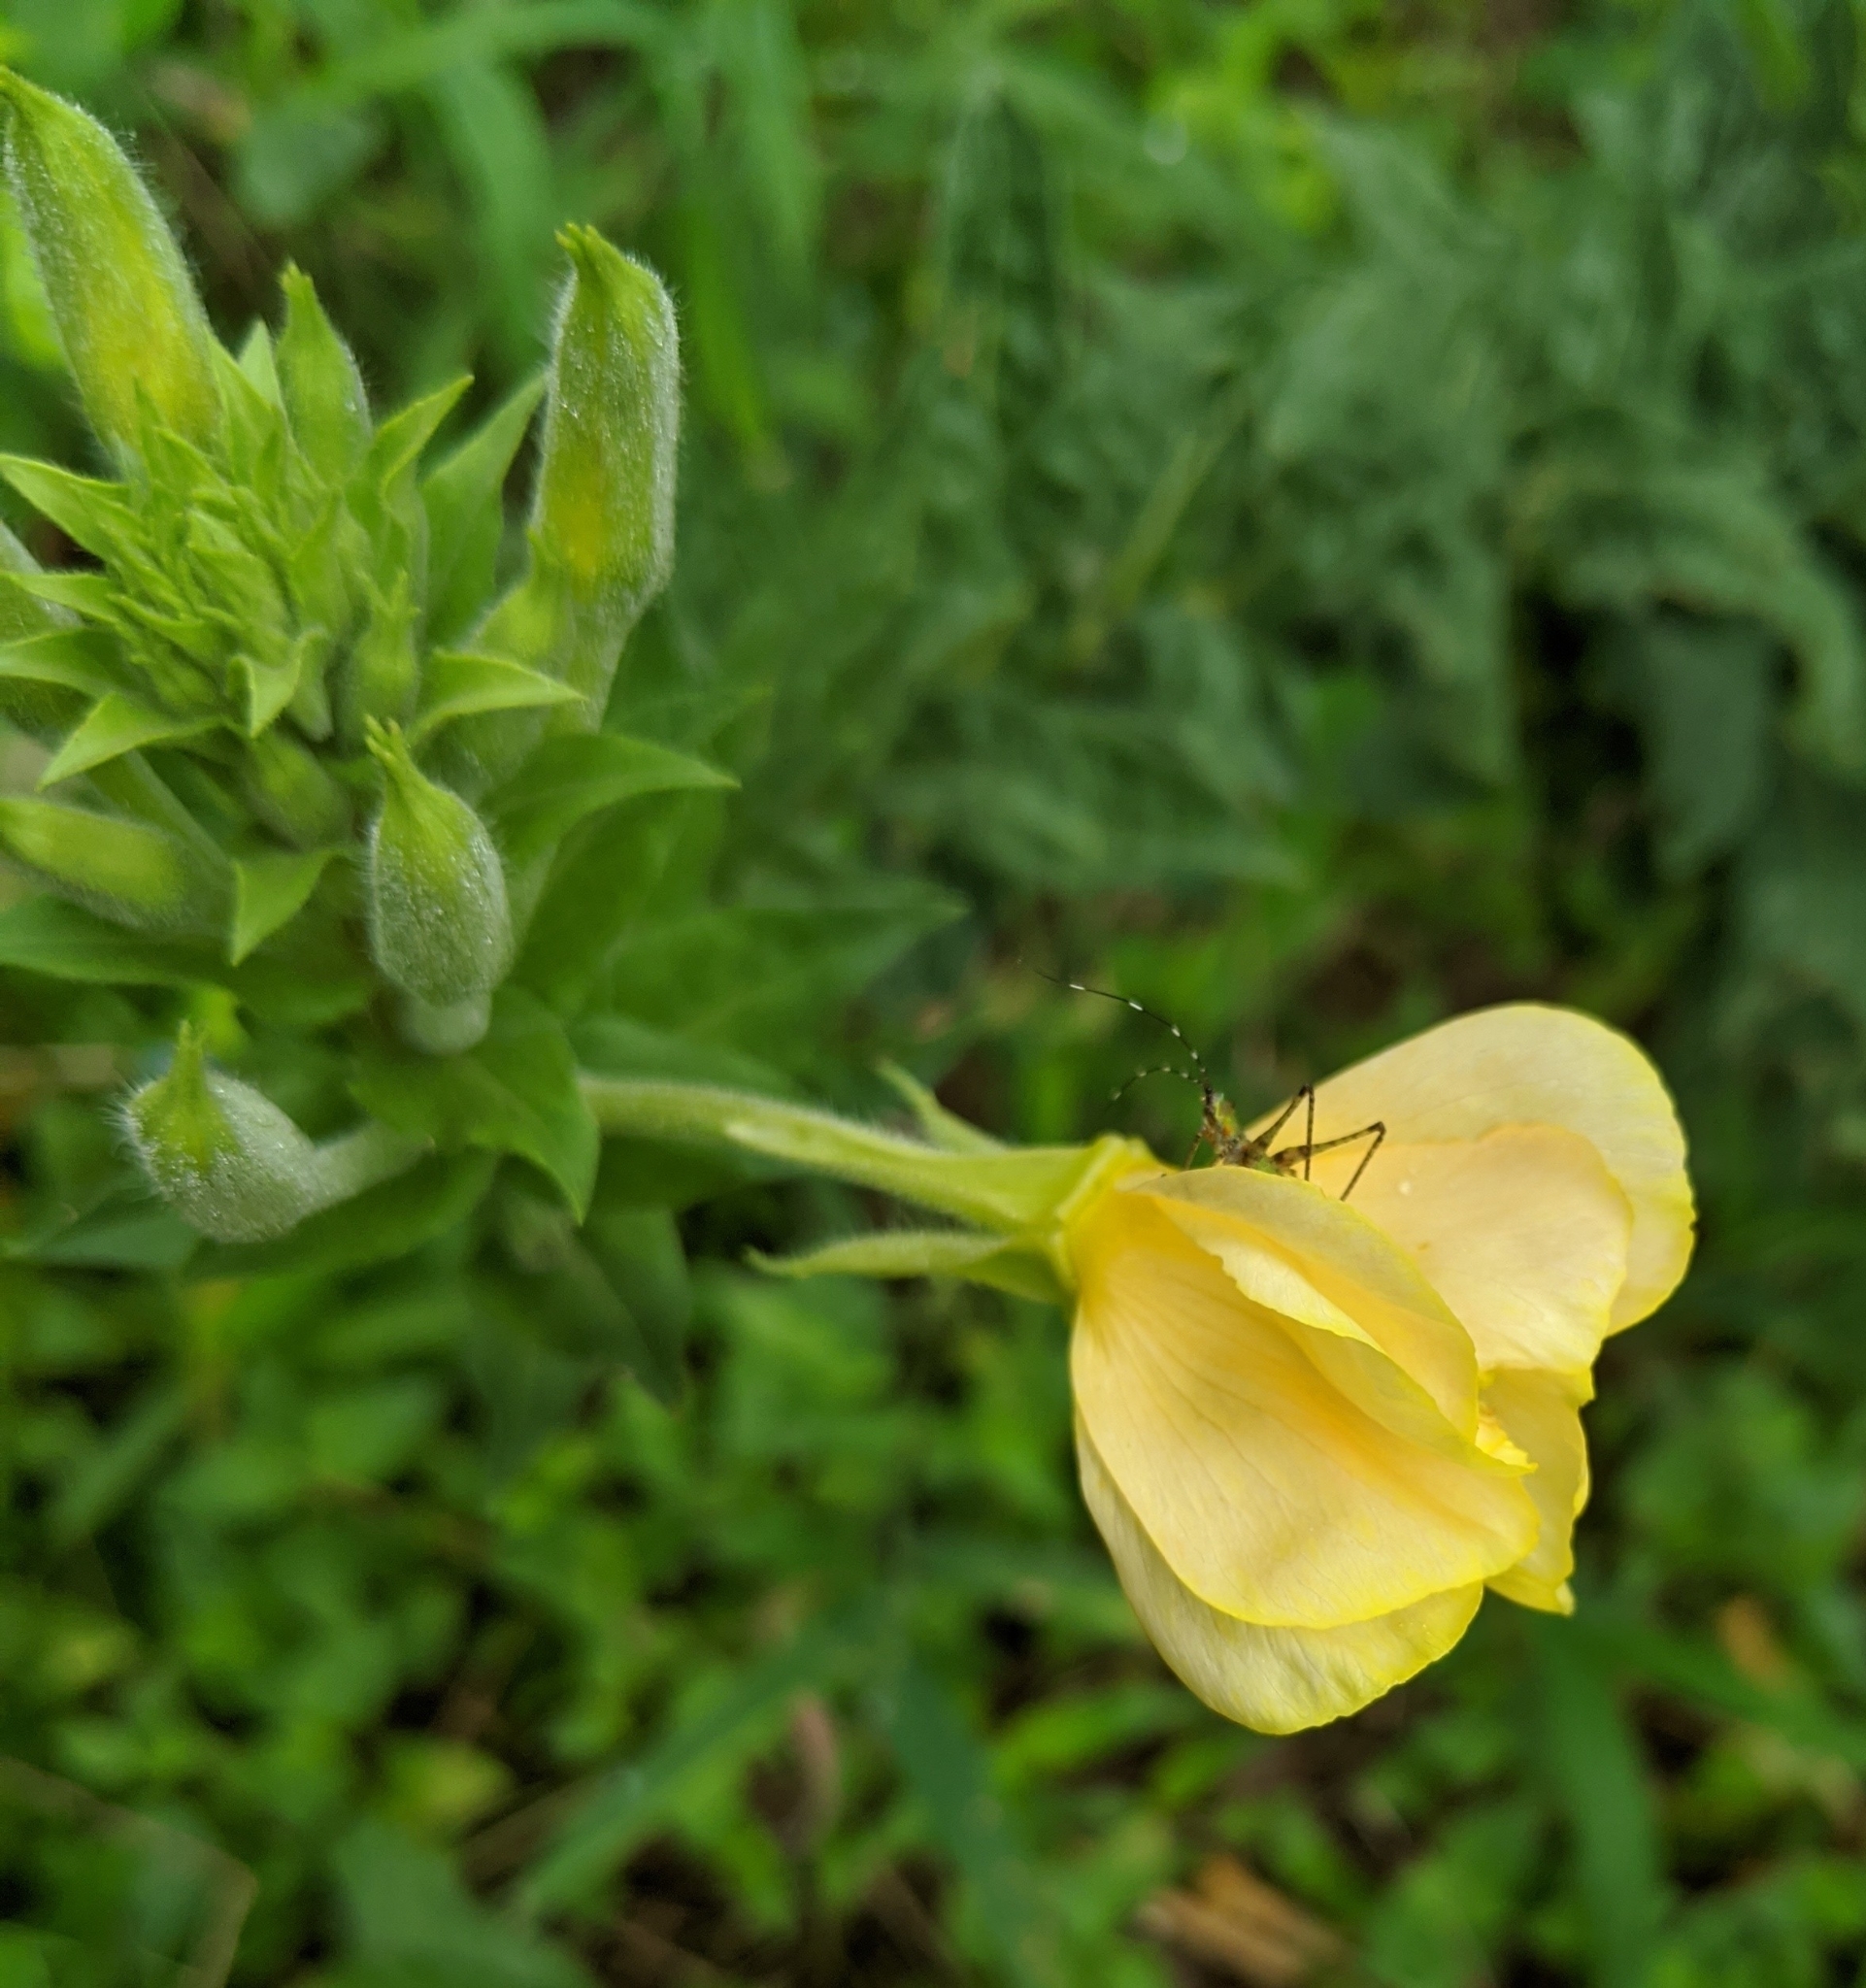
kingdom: Plantae
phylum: Tracheophyta
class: Magnoliopsida
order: Myrtales
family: Onagraceae
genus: Oenothera
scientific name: Oenothera biennis
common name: Common evening-primrose
